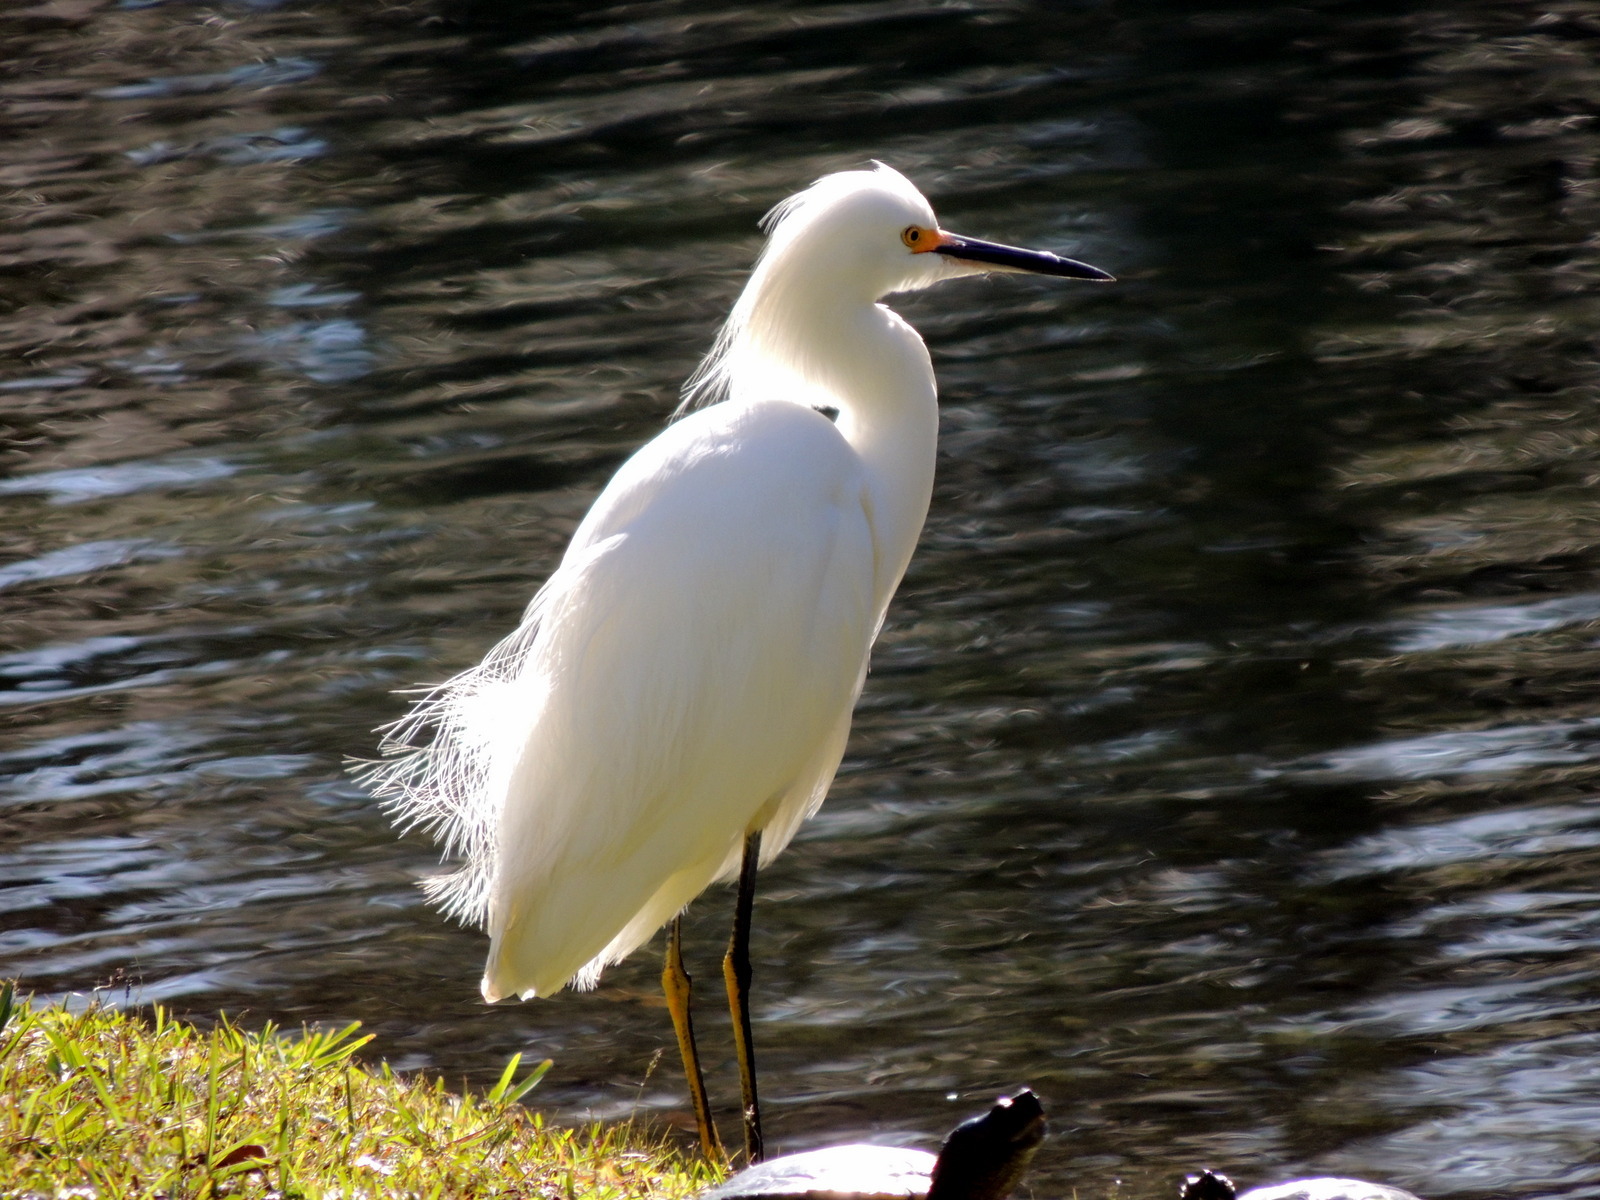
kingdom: Animalia
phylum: Chordata
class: Aves
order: Pelecaniformes
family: Ardeidae
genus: Egretta
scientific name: Egretta thula
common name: Snowy egret
